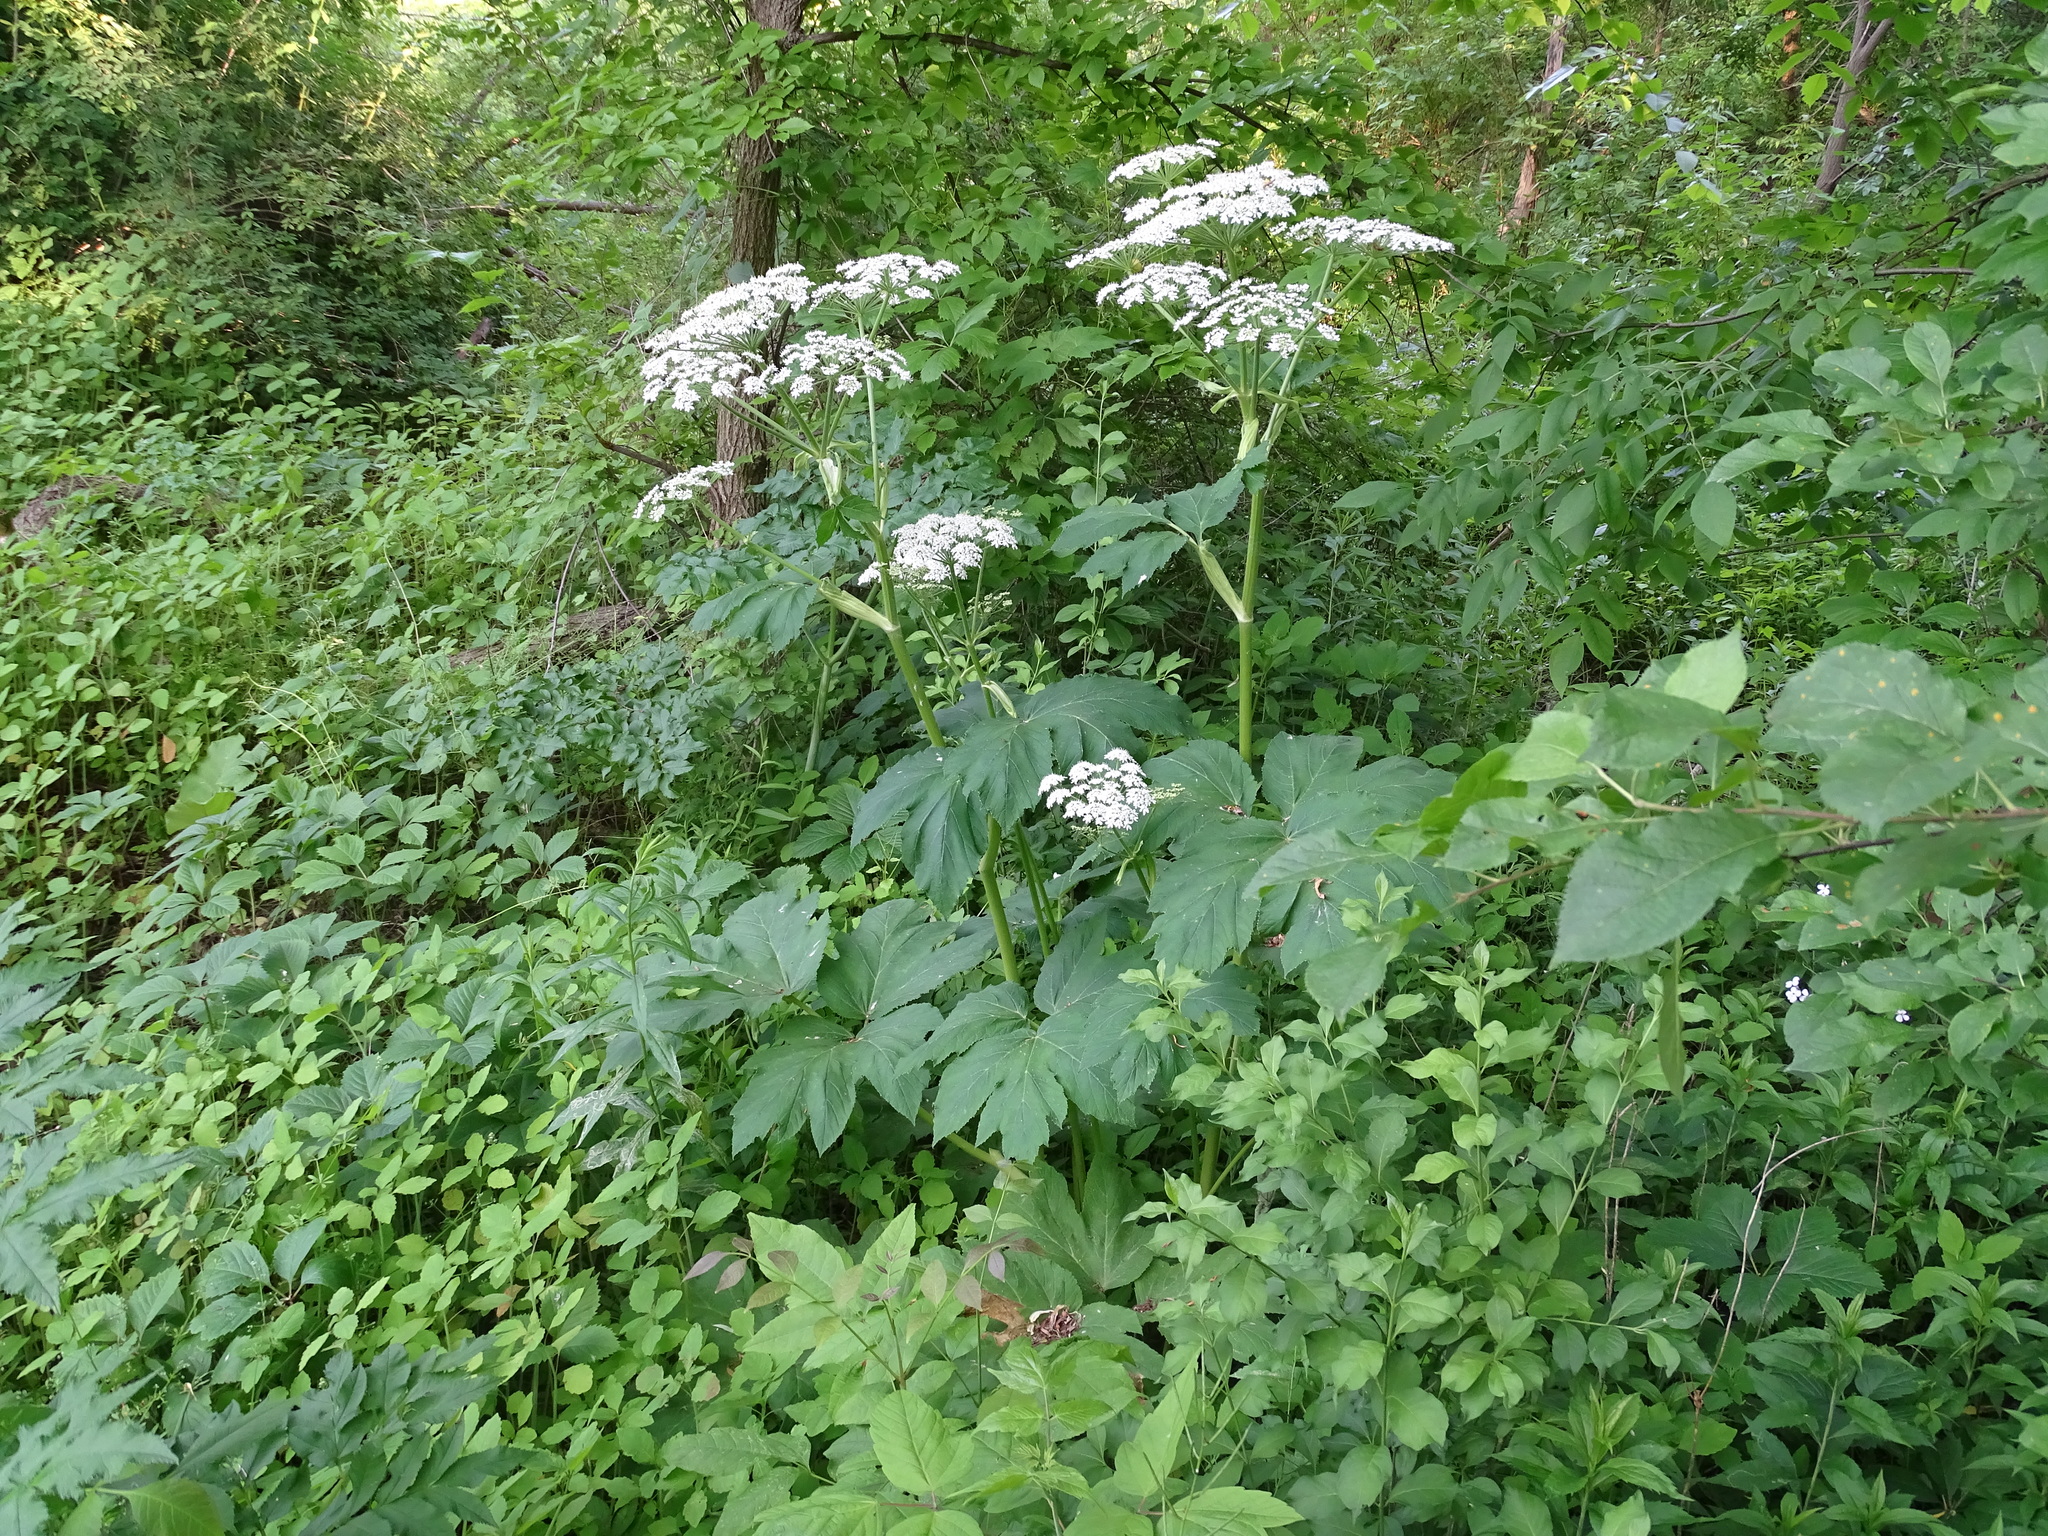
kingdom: Plantae
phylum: Tracheophyta
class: Magnoliopsida
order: Apiales
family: Apiaceae
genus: Heracleum
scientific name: Heracleum maximum
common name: American cow parsnip
